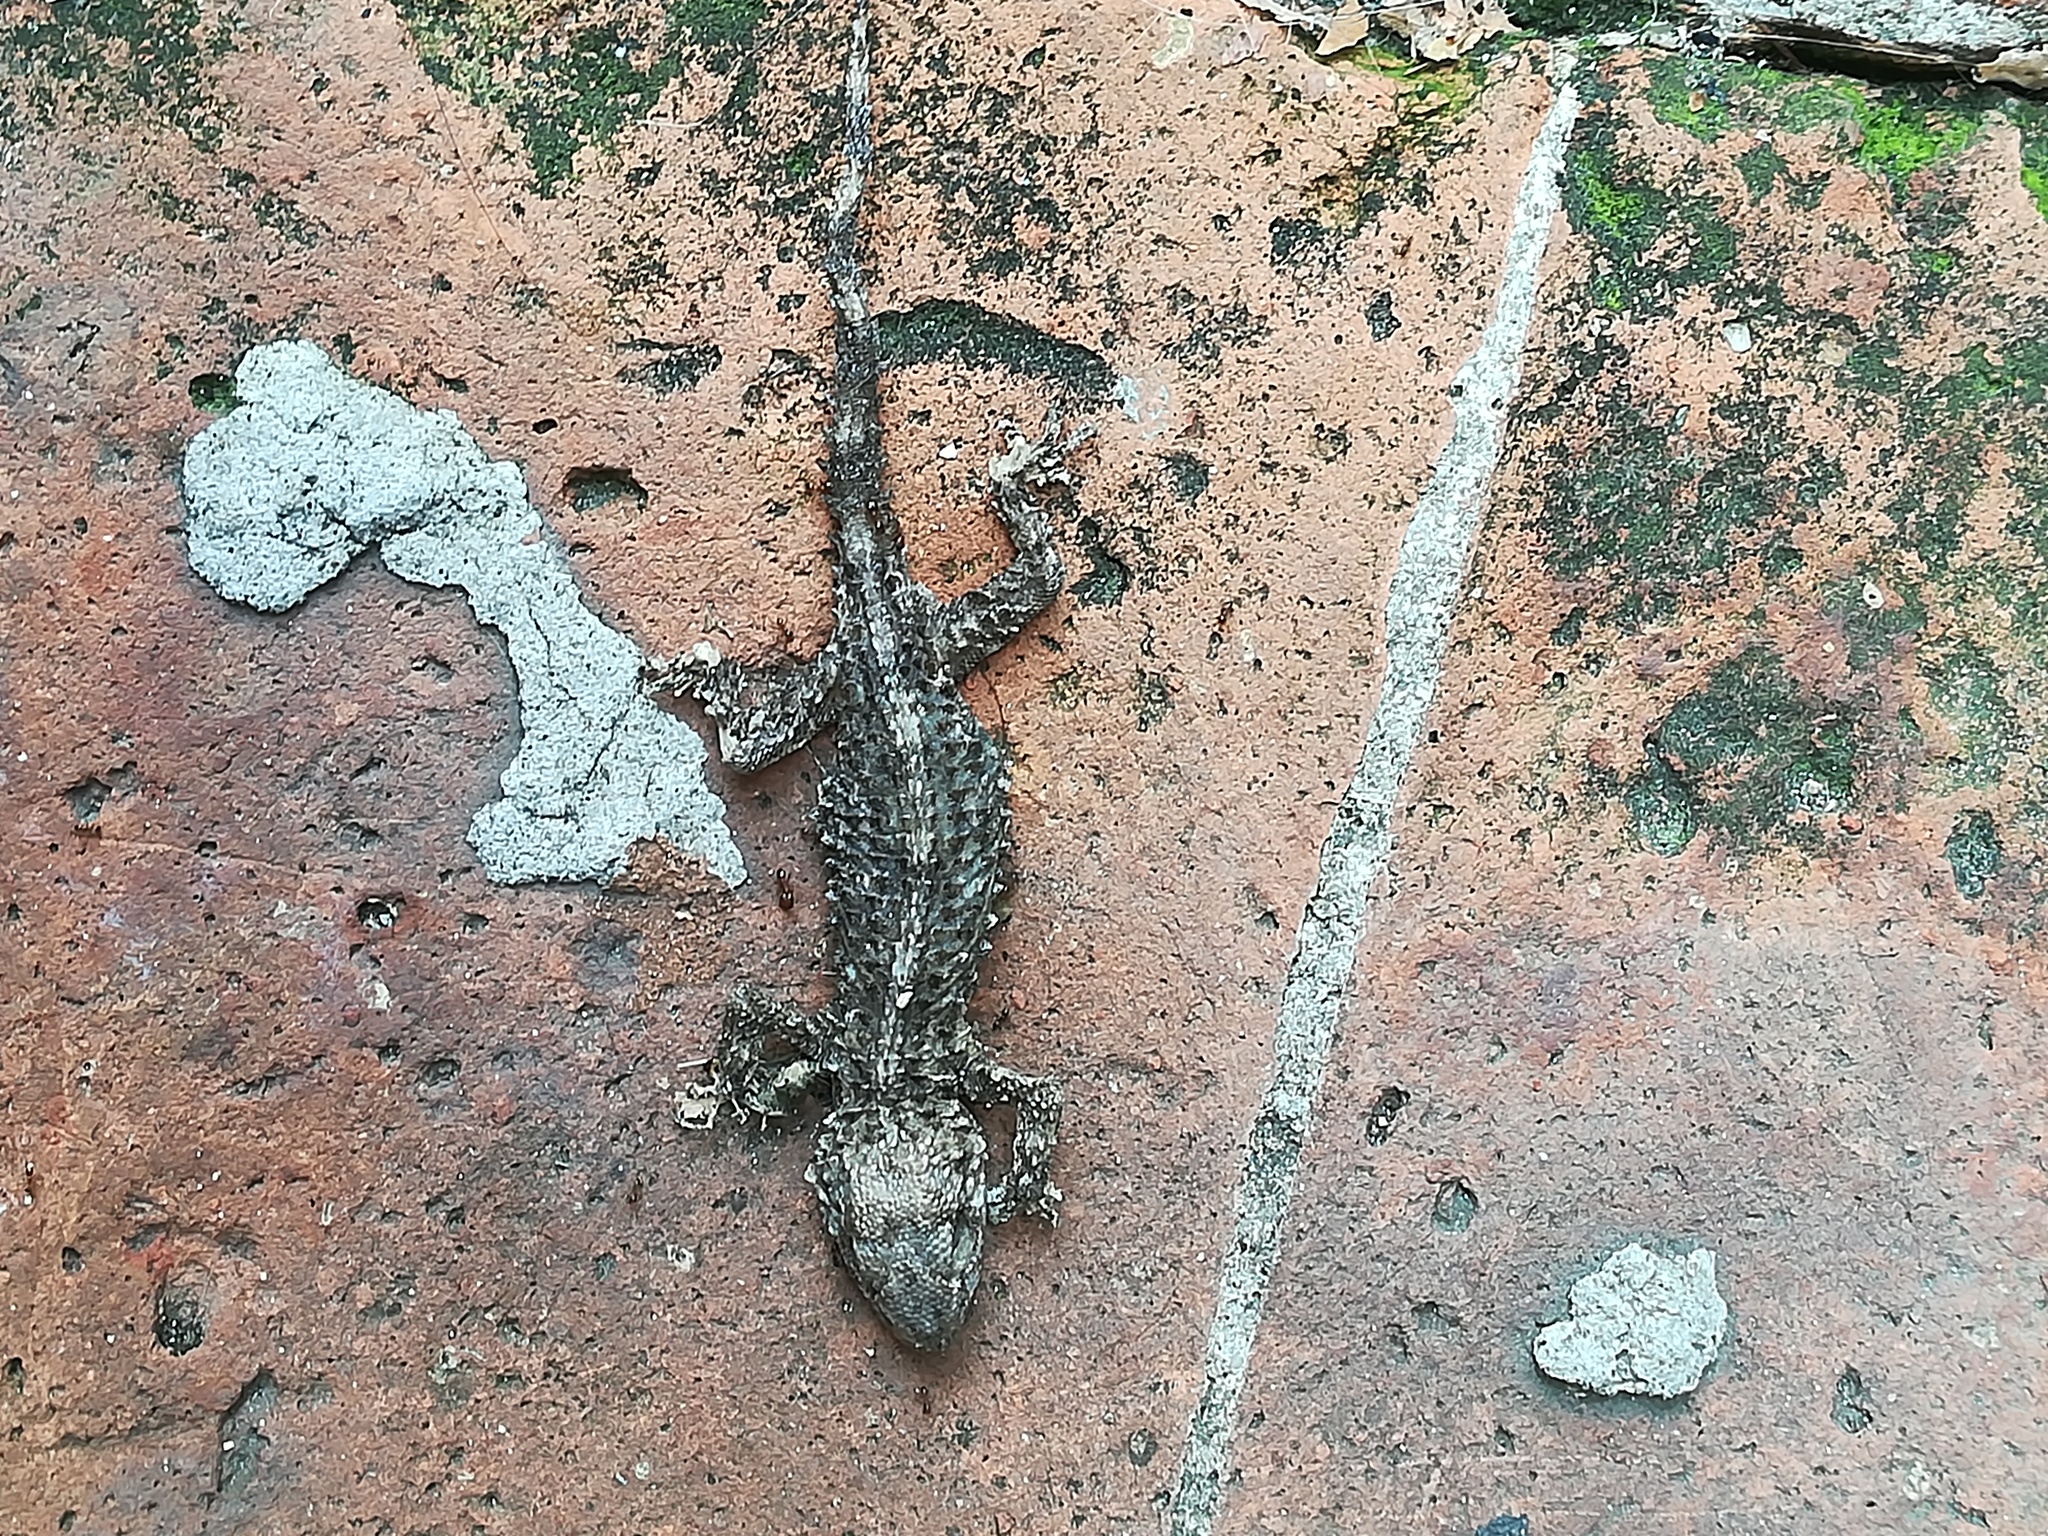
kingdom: Animalia
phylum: Chordata
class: Squamata
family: Phyllodactylidae
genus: Tarentola
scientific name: Tarentola mauritanica
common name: Moorish gecko
